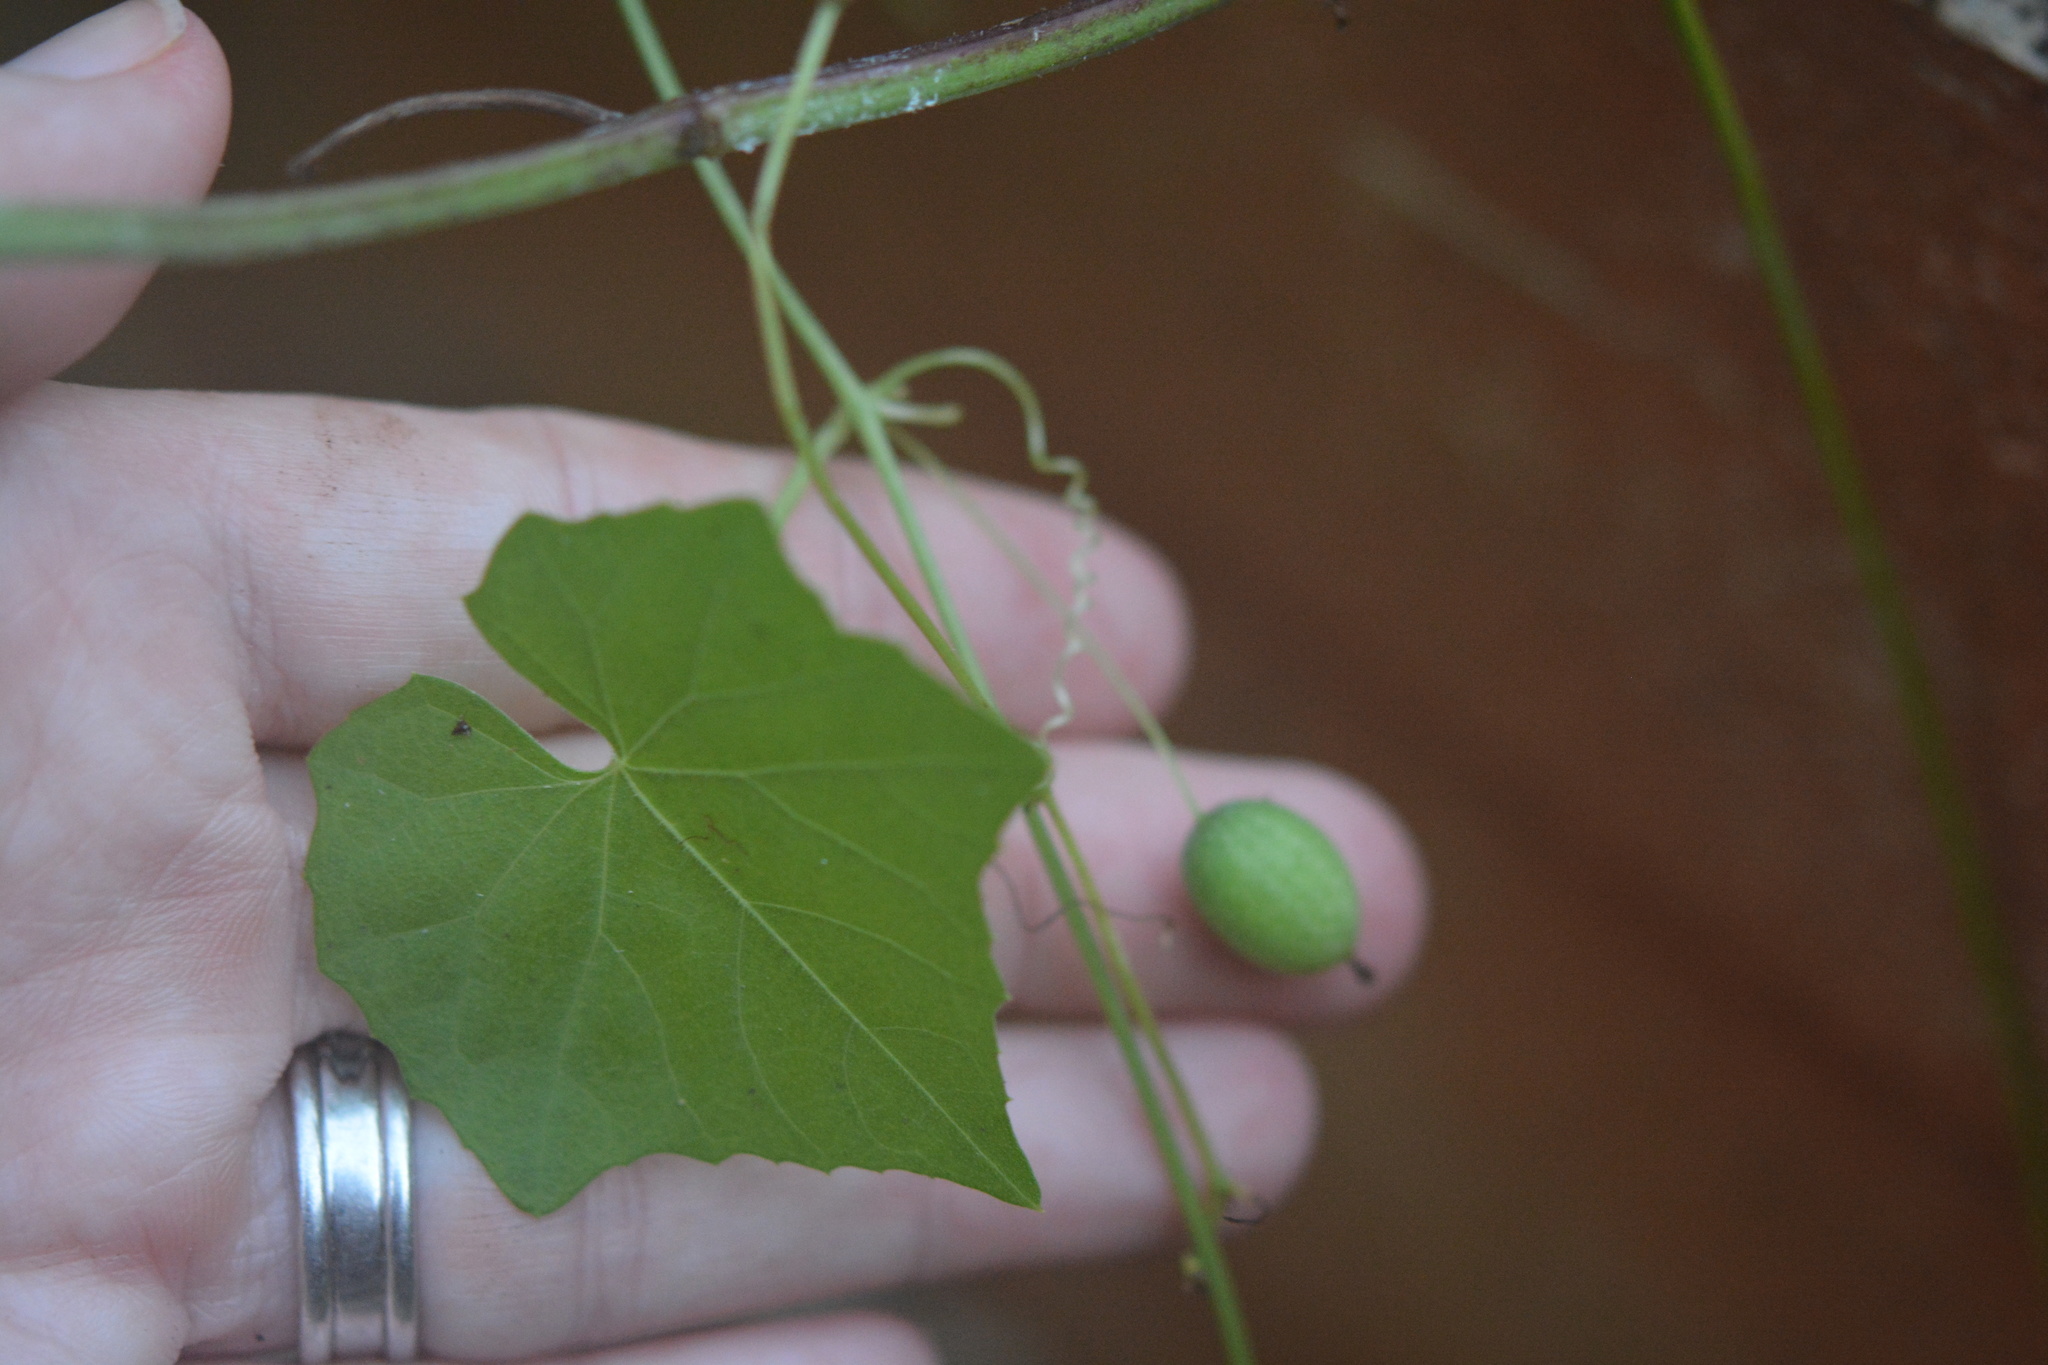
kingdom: Plantae
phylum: Tracheophyta
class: Magnoliopsida
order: Cucurbitales
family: Cucurbitaceae
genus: Melothria
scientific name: Melothria pendula
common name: Creeping-cucumber
